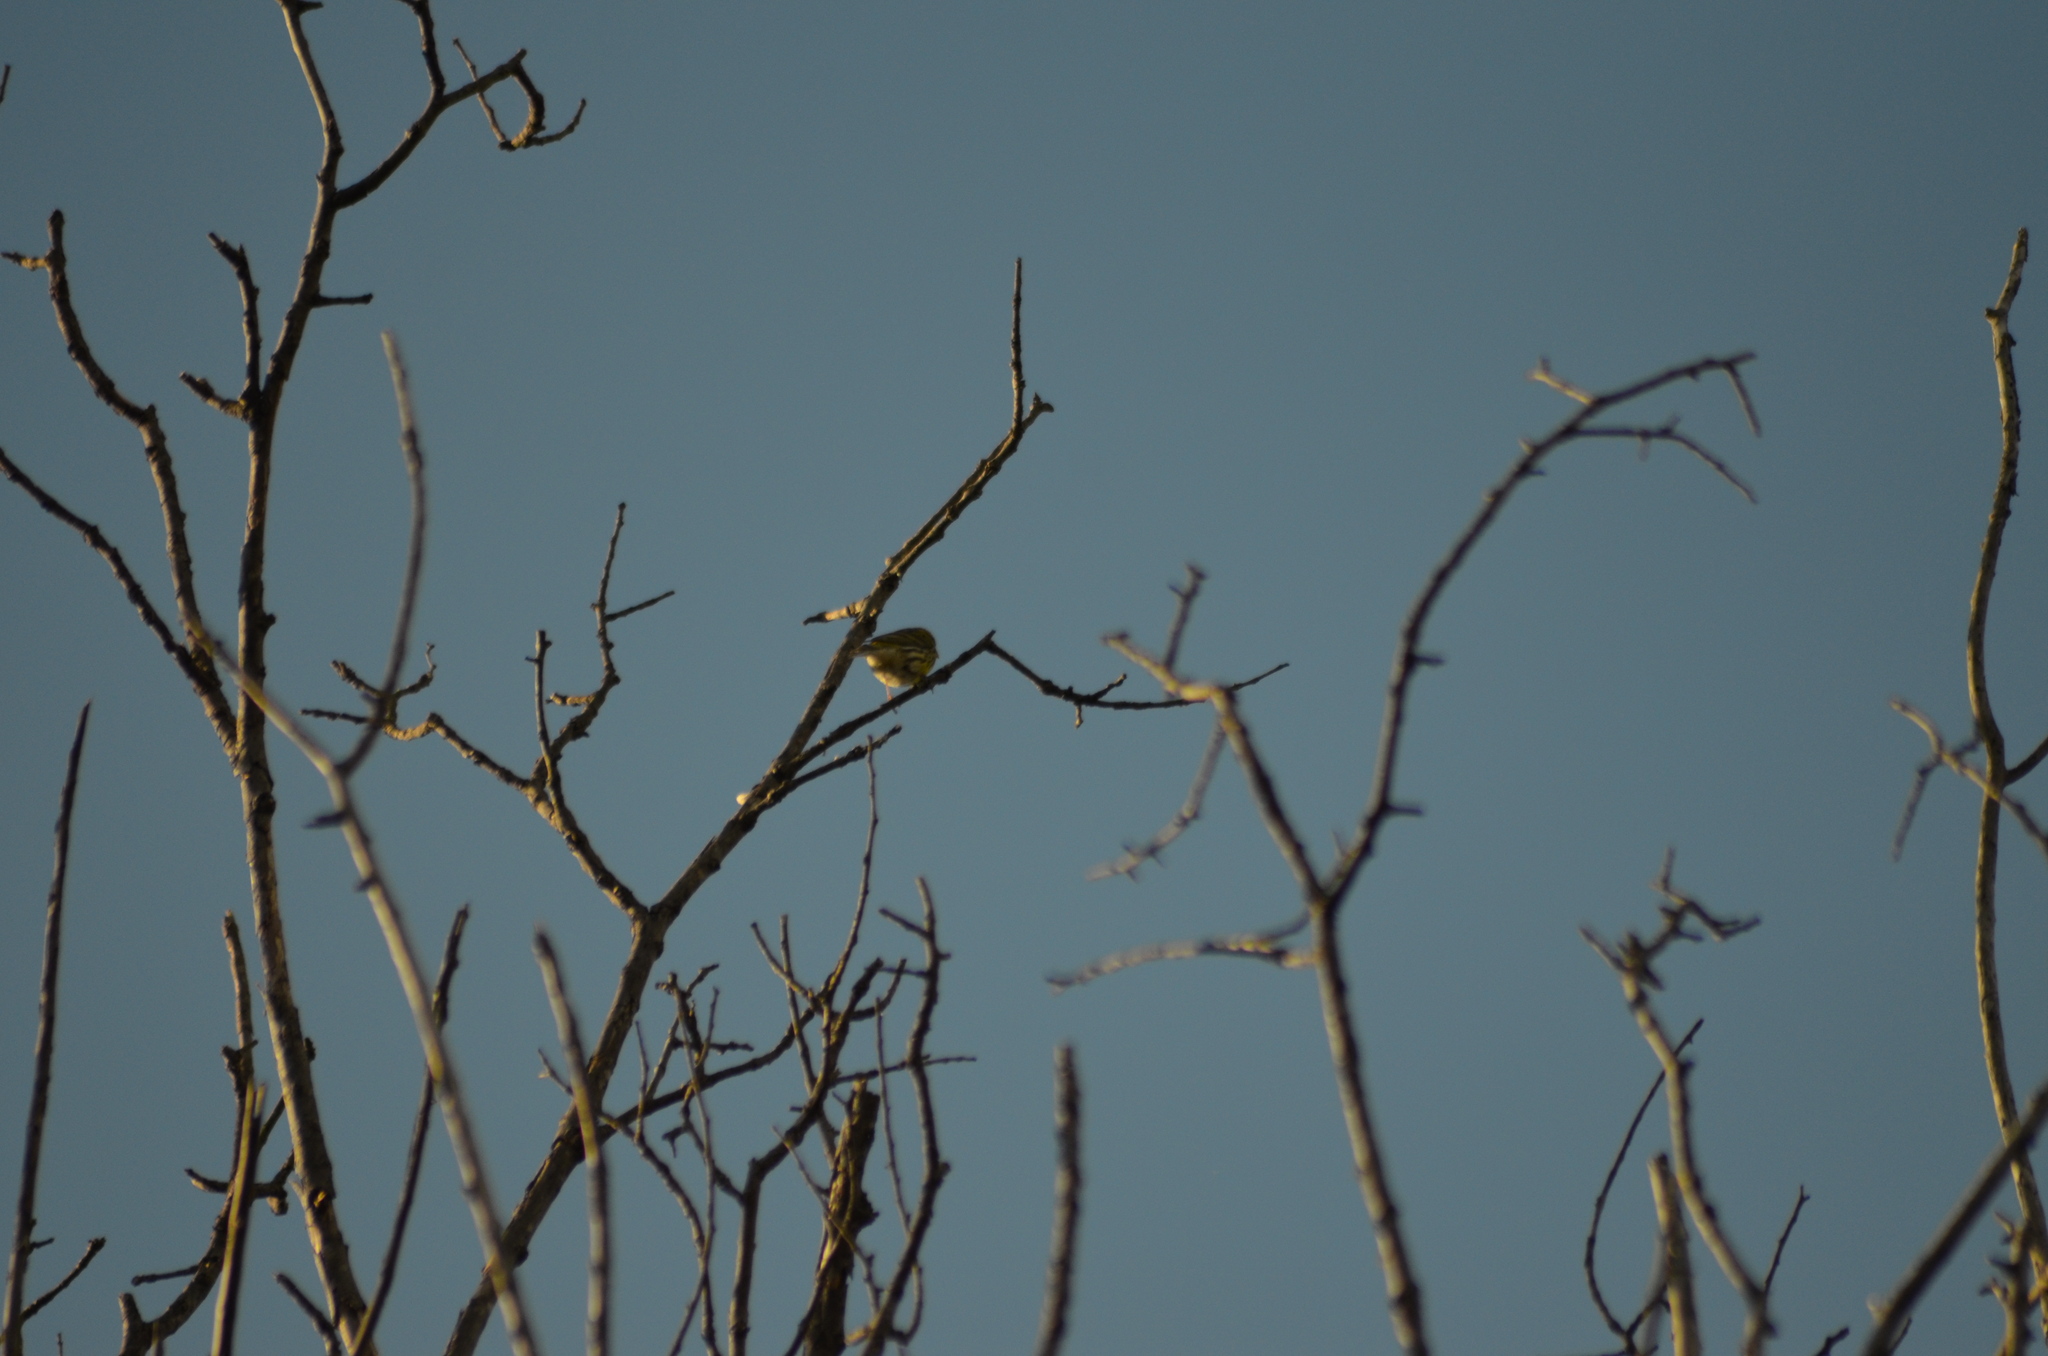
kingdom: Animalia
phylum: Chordata
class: Aves
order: Passeriformes
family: Fringillidae
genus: Serinus
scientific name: Serinus serinus
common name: European serin
